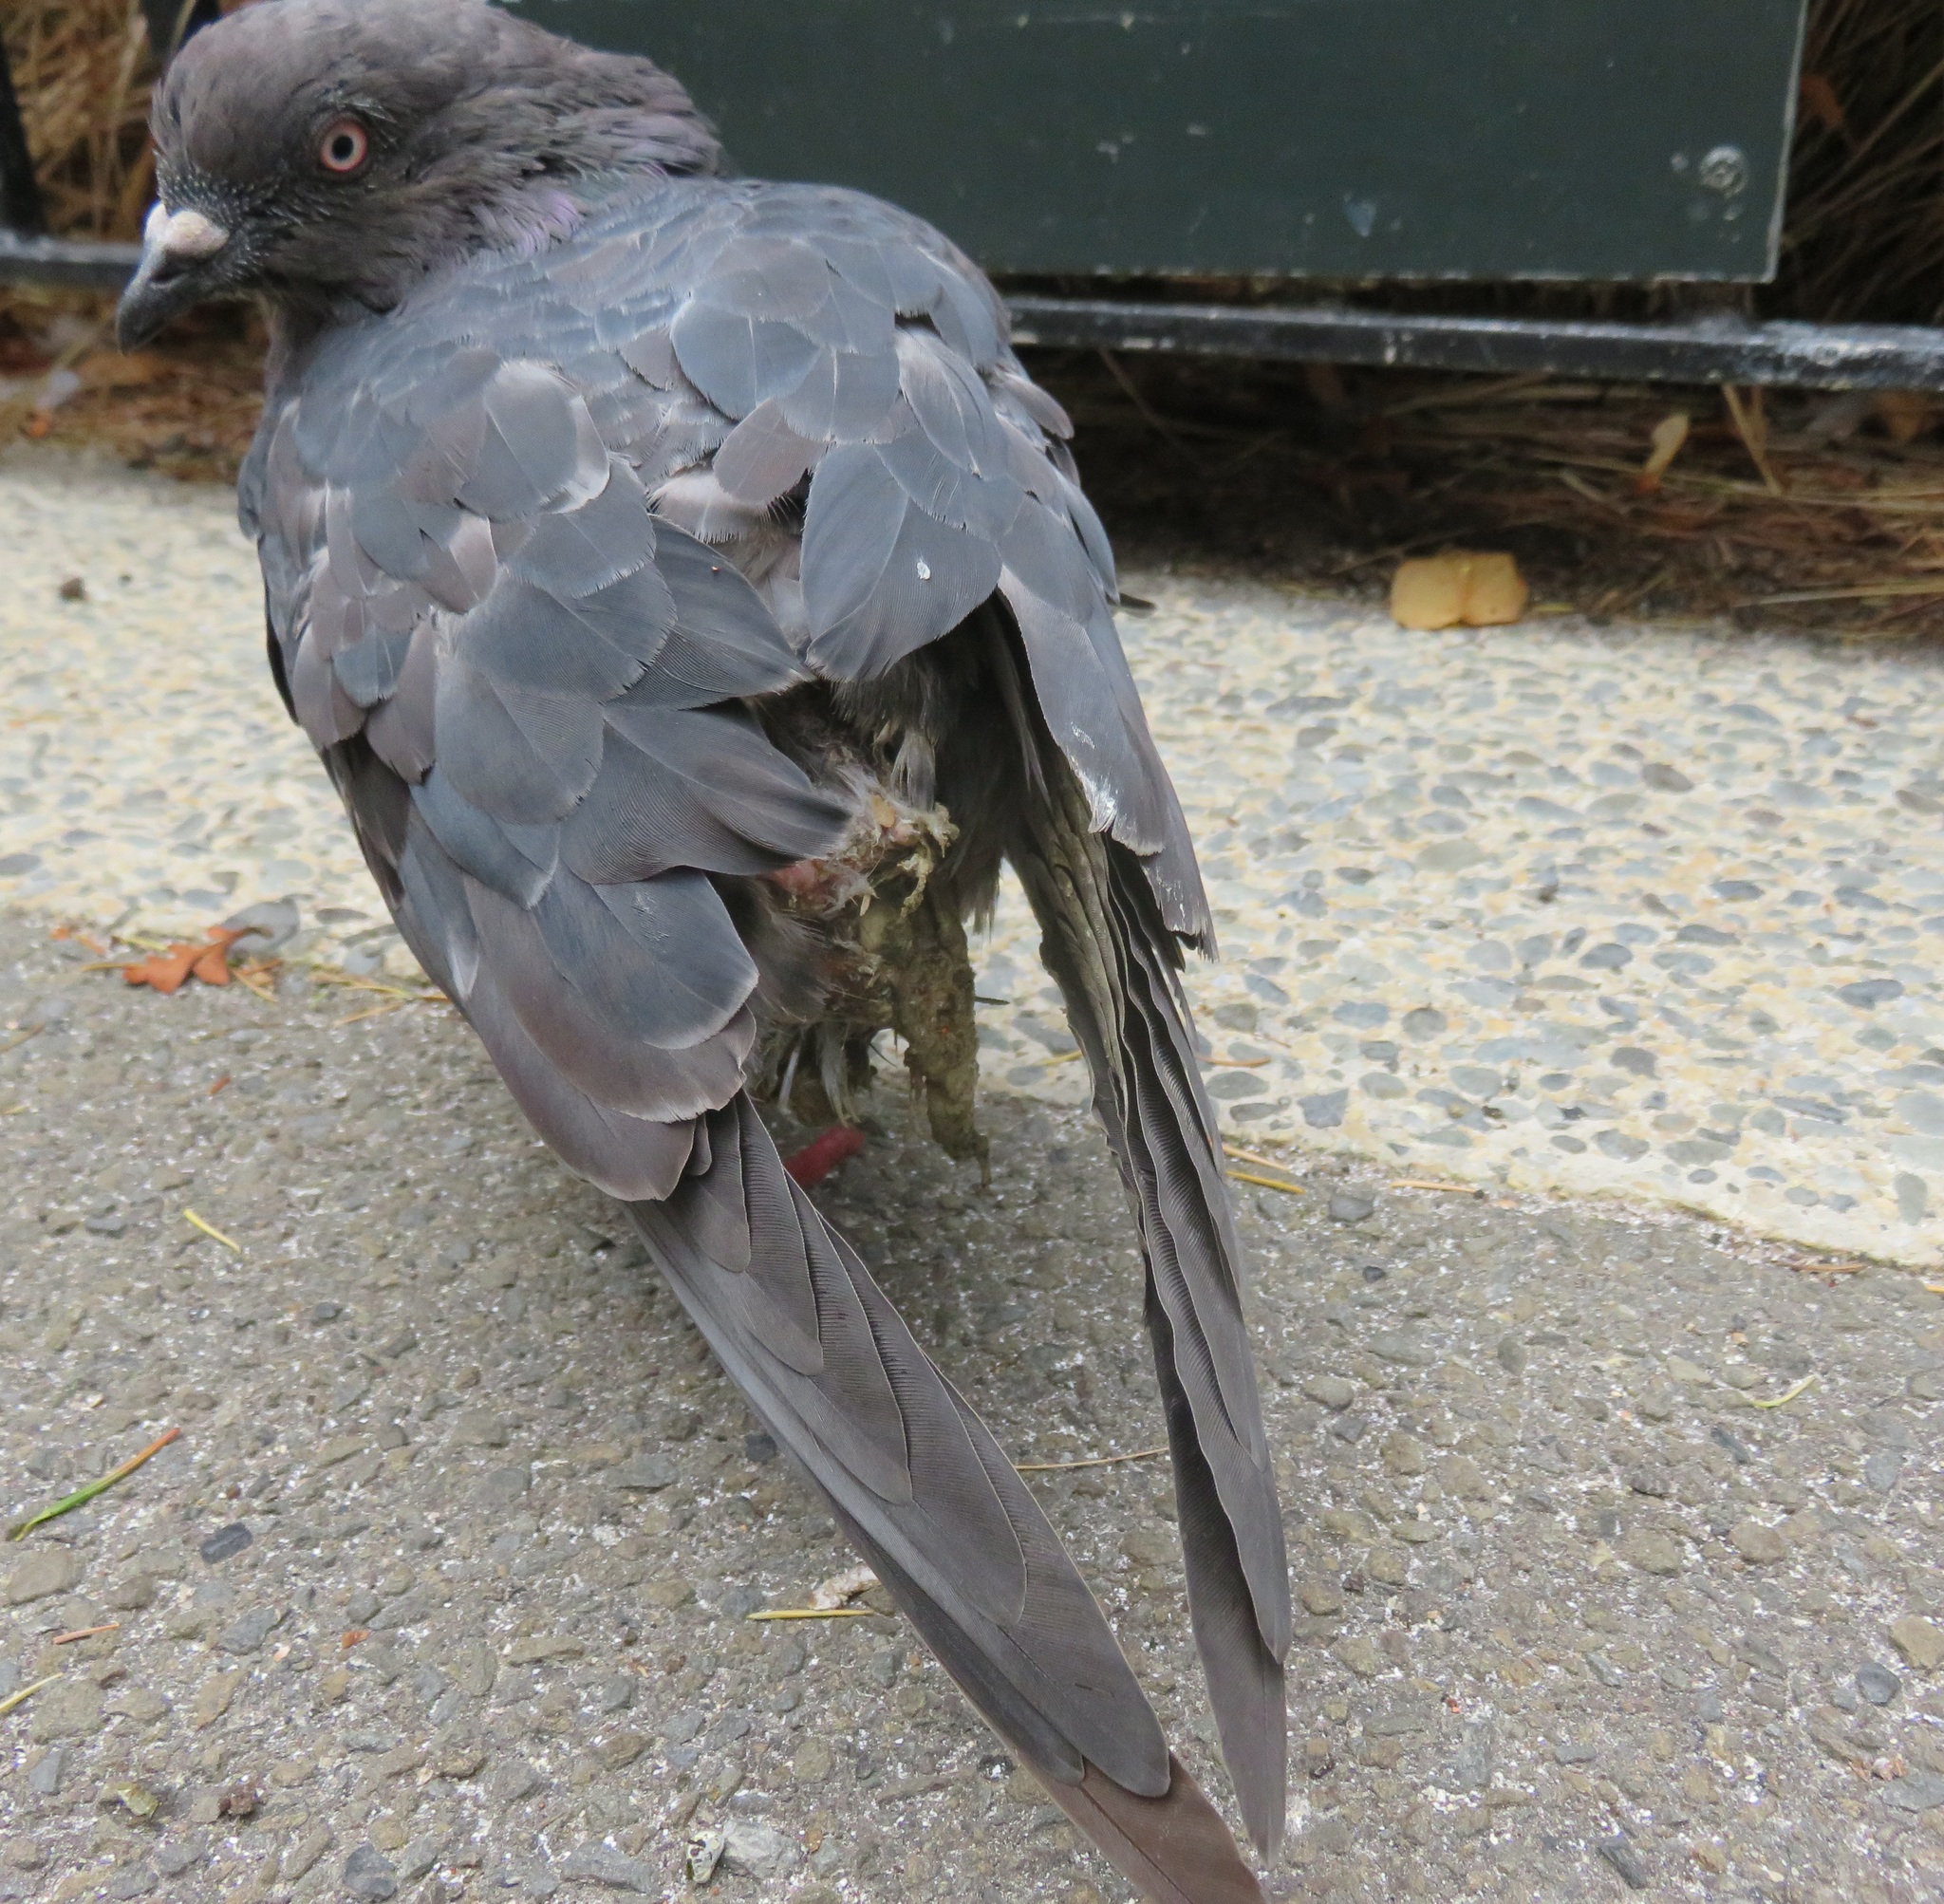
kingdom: Animalia
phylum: Chordata
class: Aves
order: Columbiformes
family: Columbidae
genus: Columba
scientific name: Columba livia
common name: Rock pigeon
